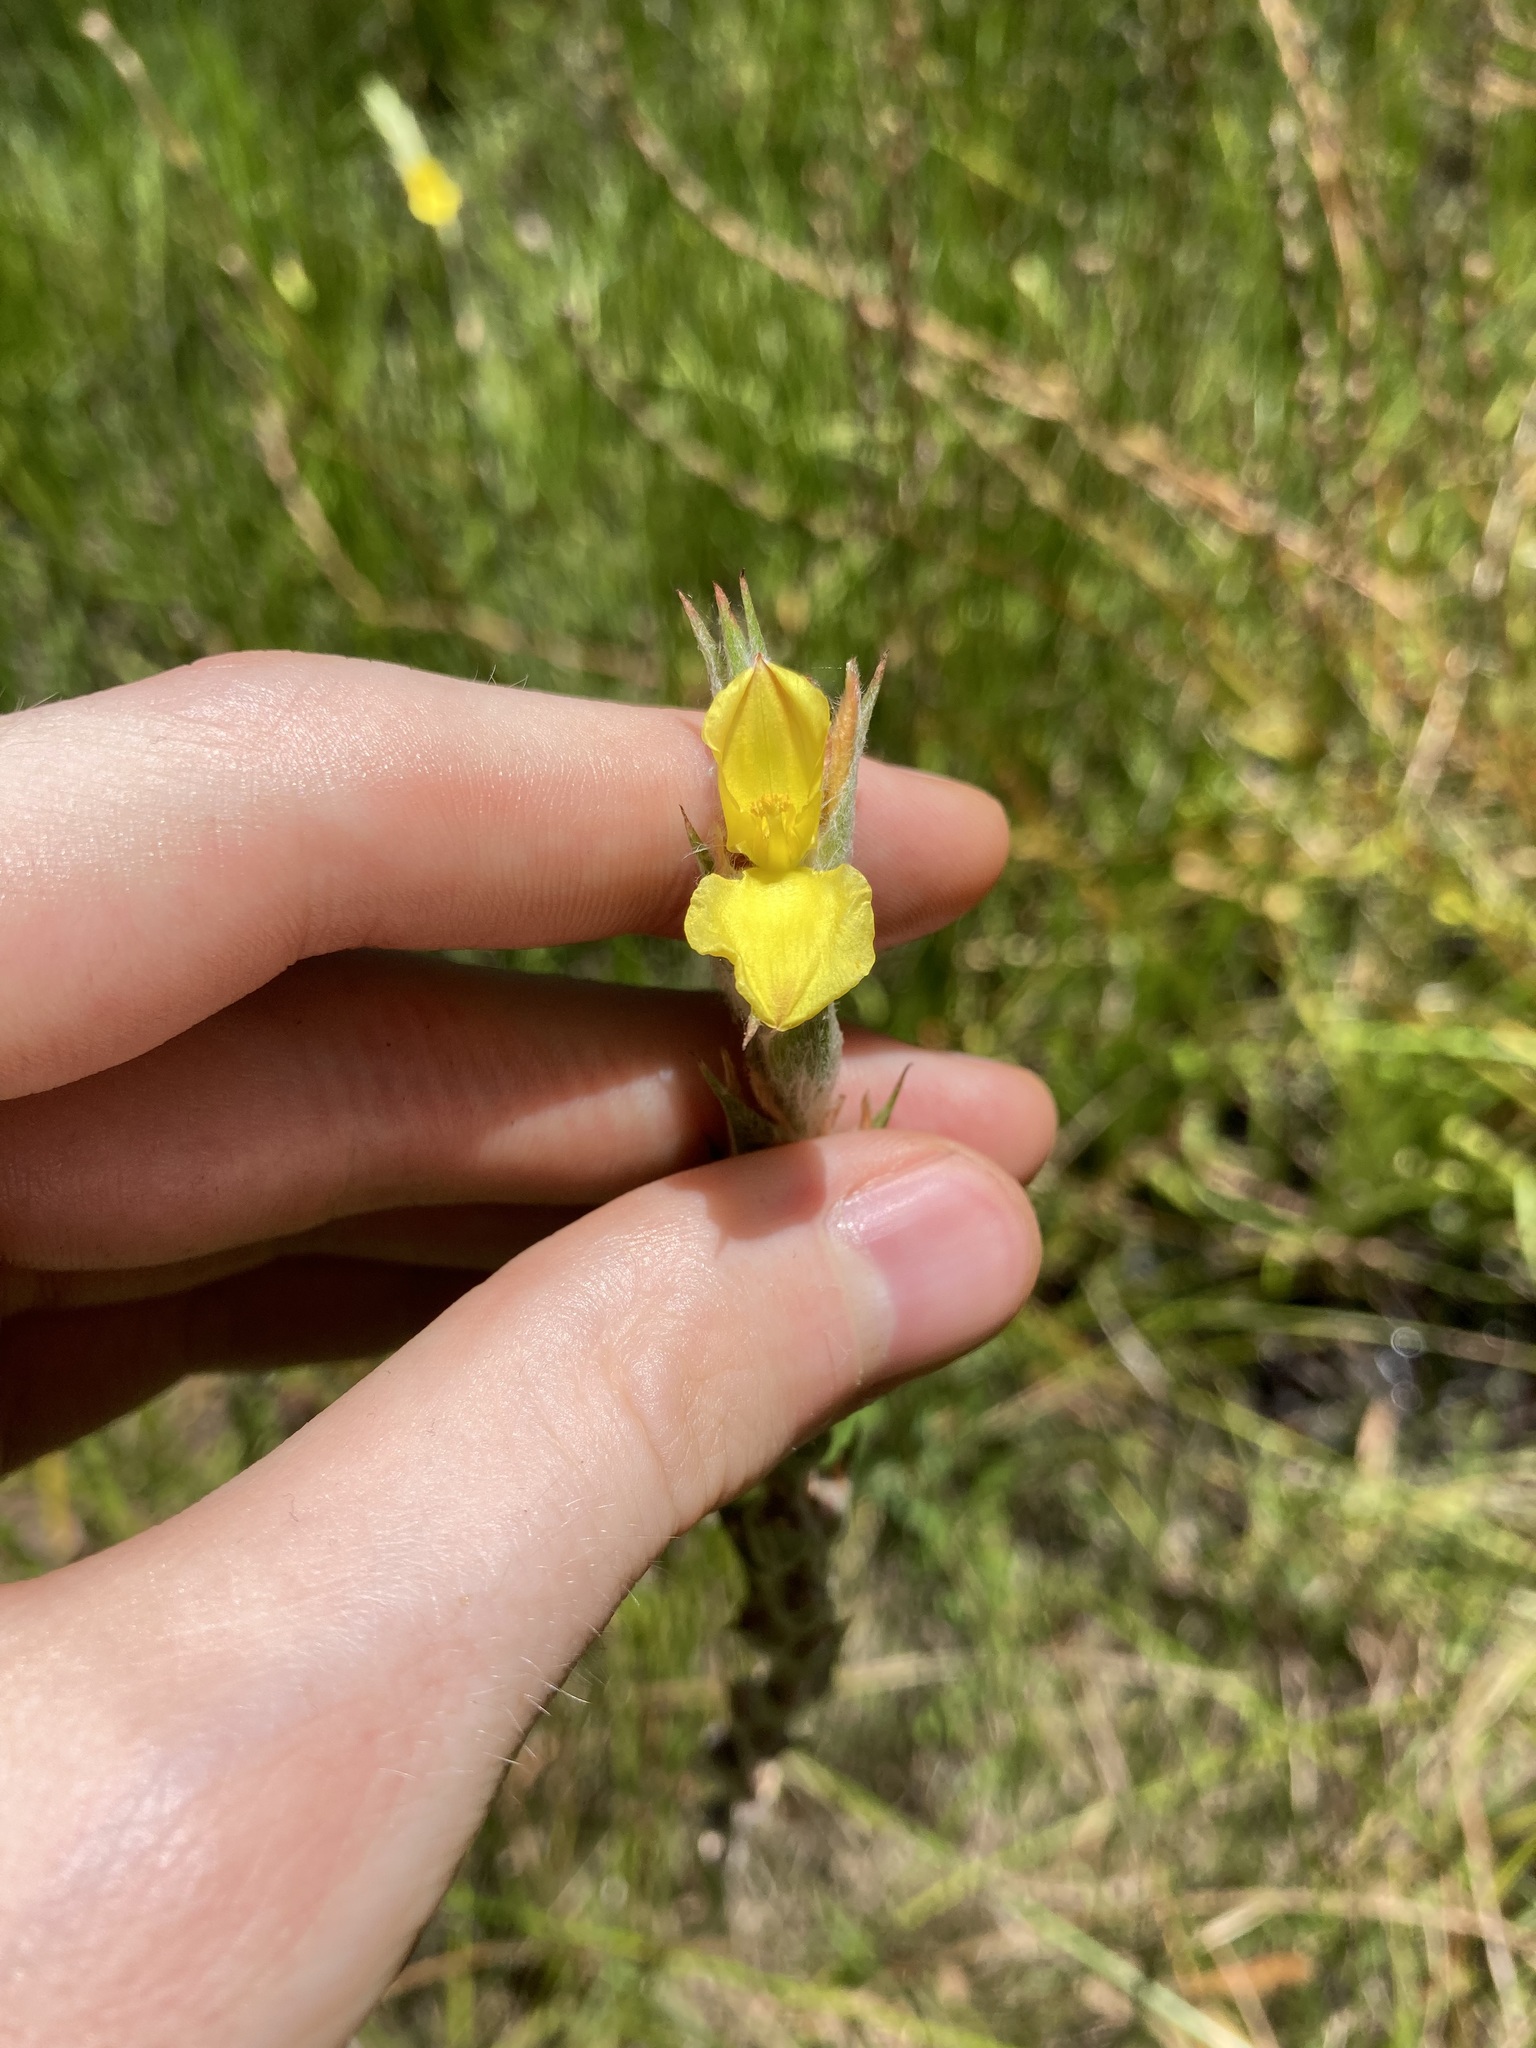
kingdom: Plantae
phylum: Tracheophyta
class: Liliopsida
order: Commelinales
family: Philydraceae
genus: Philydrum
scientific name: Philydrum lanuginosum
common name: Woolly frog's mouth
